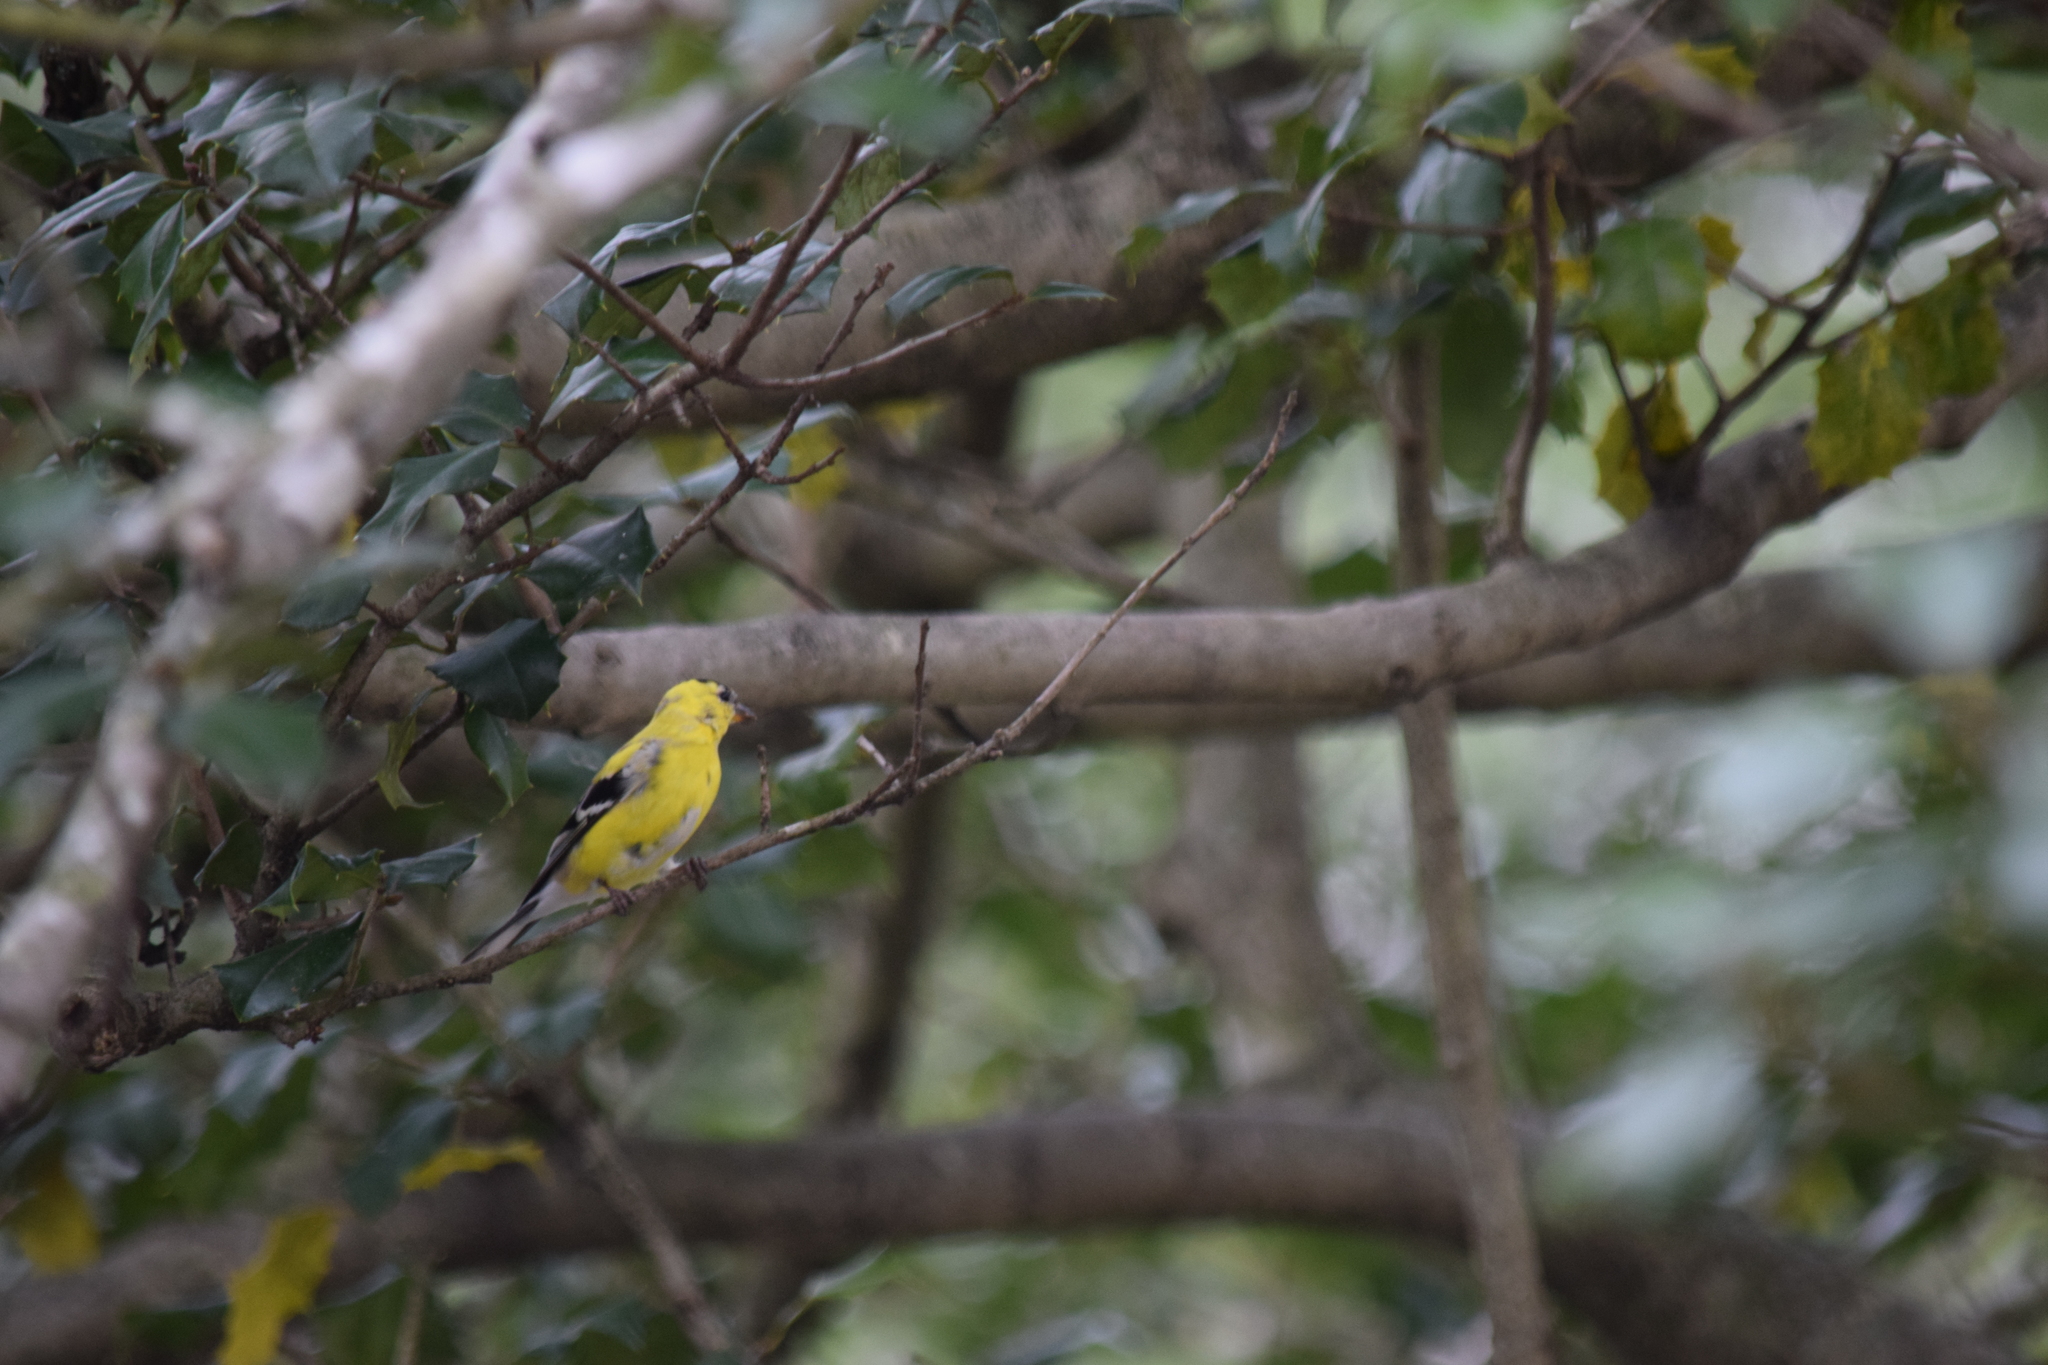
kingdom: Animalia
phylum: Chordata
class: Aves
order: Passeriformes
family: Fringillidae
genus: Spinus
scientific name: Spinus tristis
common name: American goldfinch
